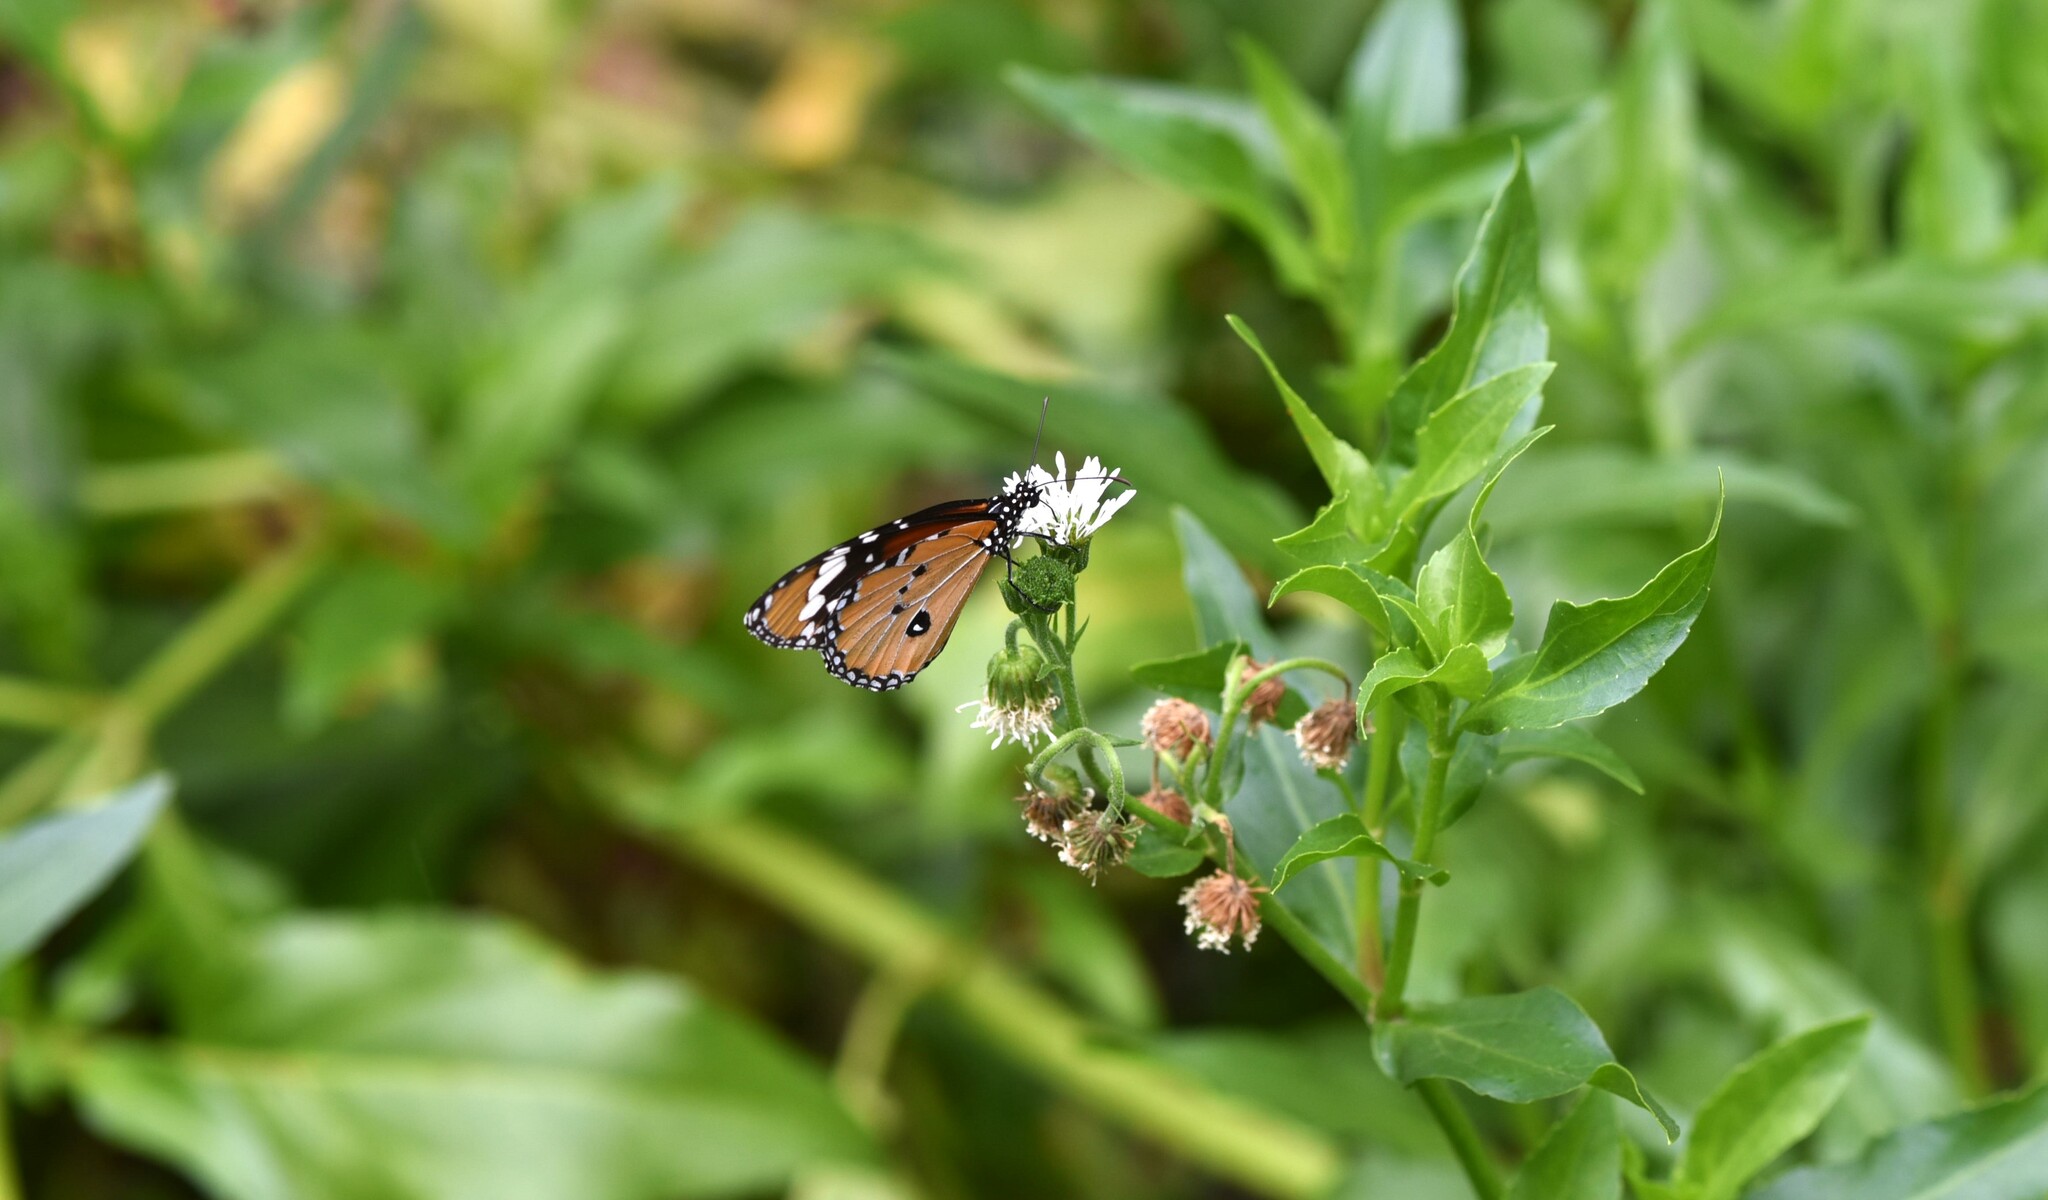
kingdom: Animalia
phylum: Arthropoda
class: Insecta
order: Lepidoptera
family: Nymphalidae
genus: Danaus
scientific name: Danaus chrysippus
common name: Plain tiger
